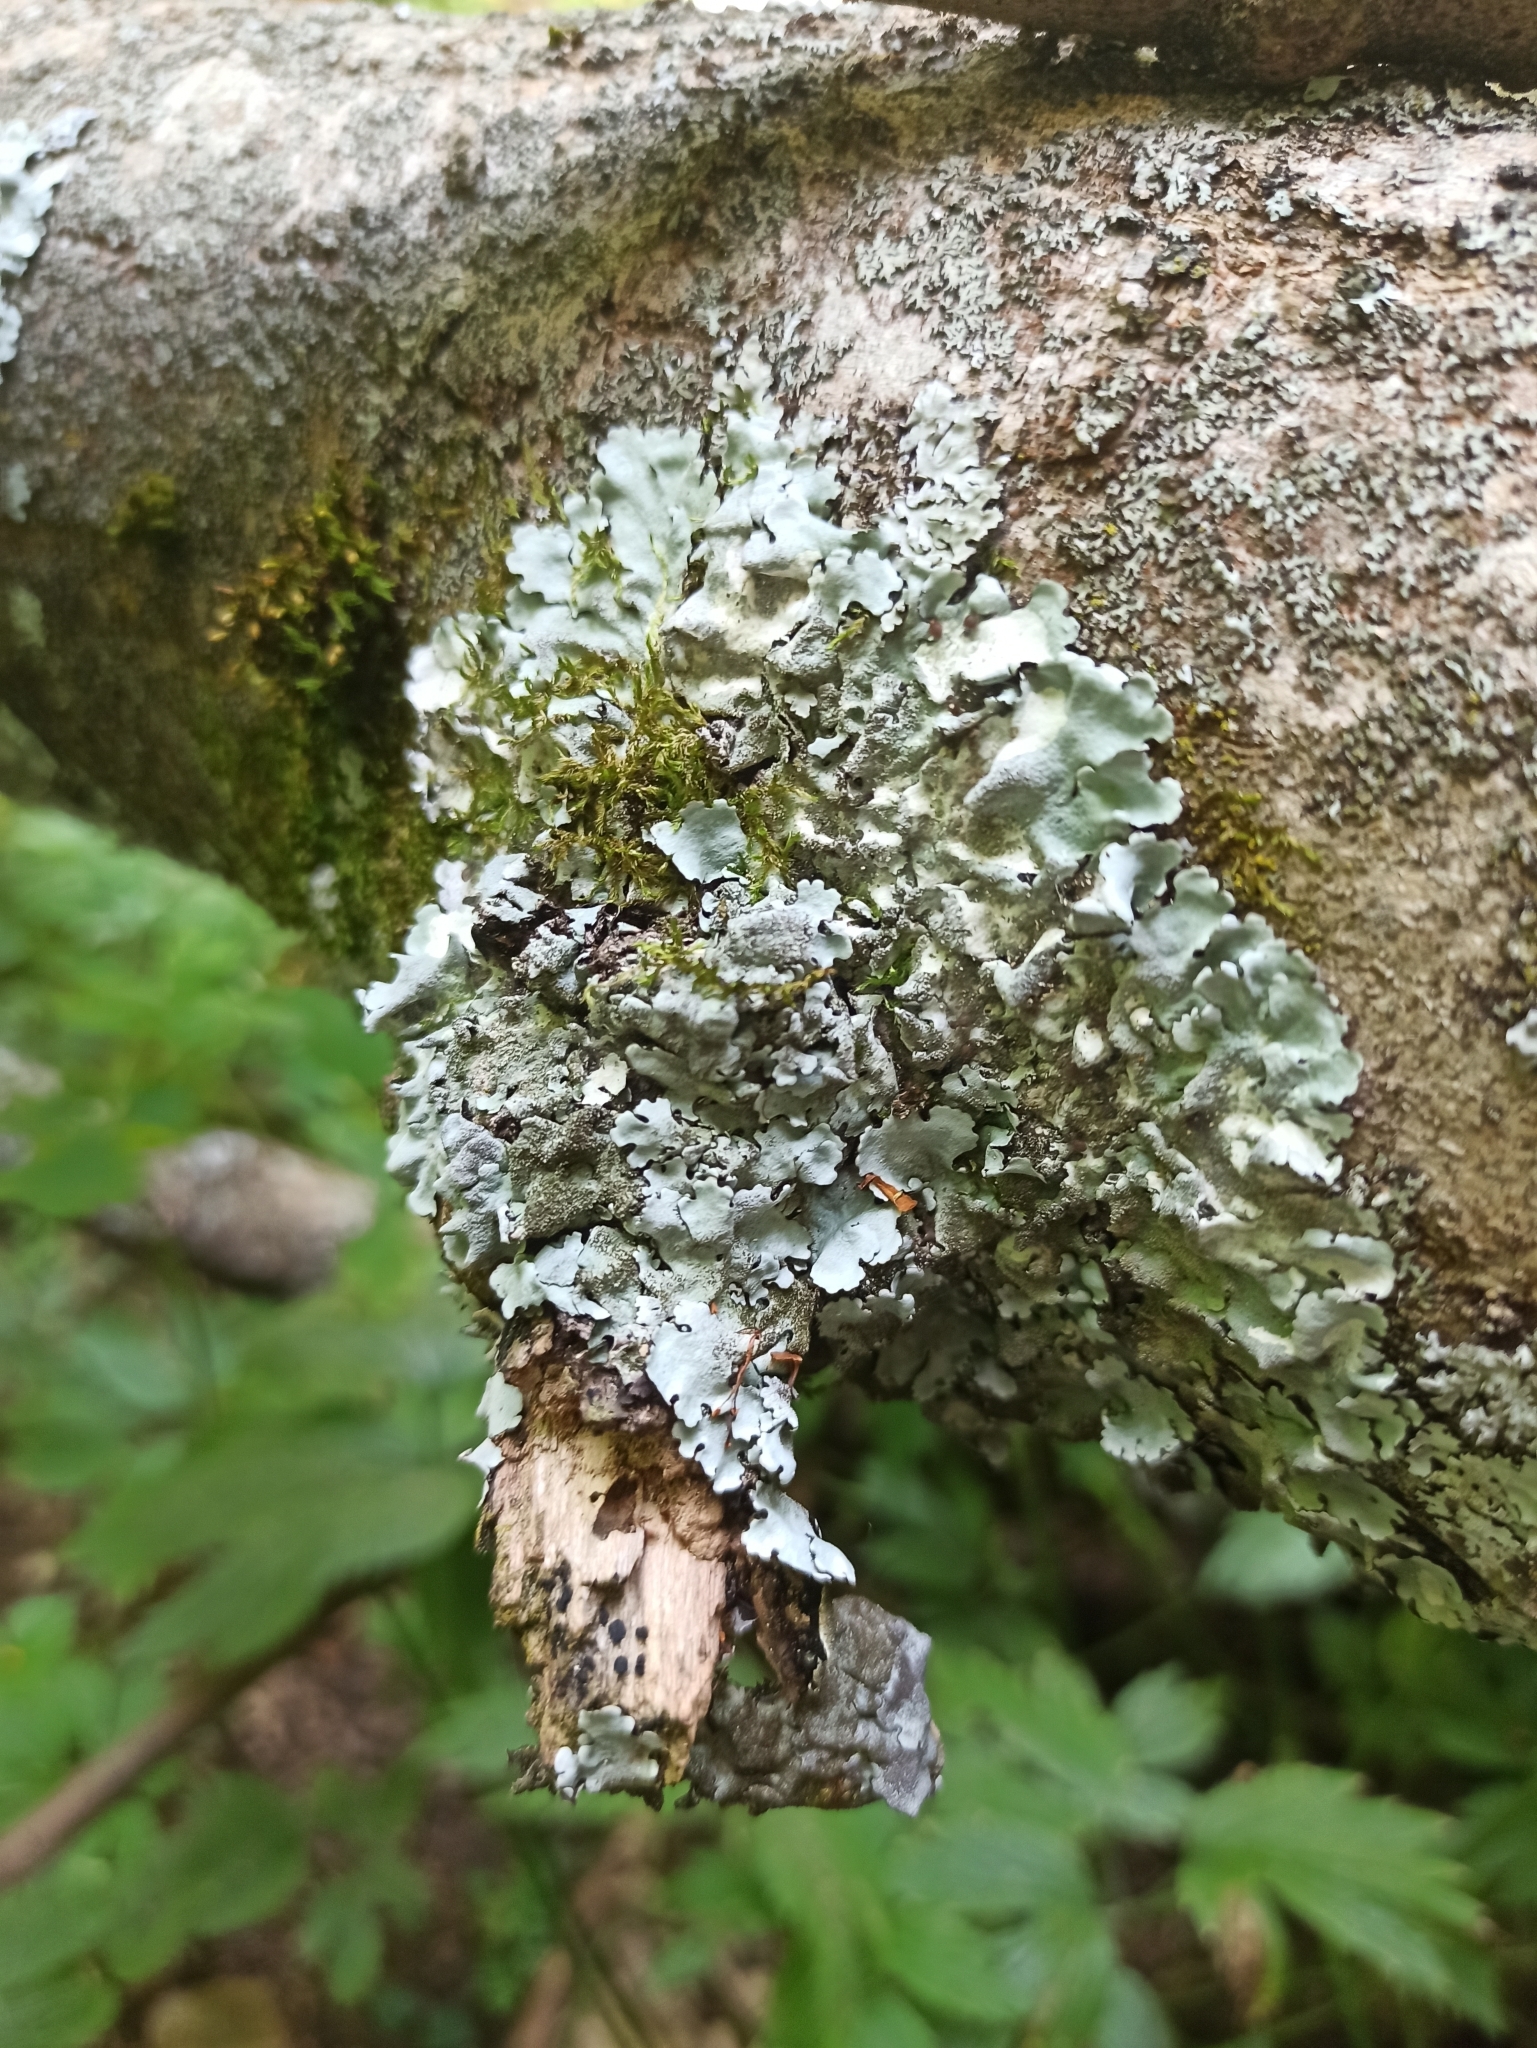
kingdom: Fungi
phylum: Ascomycota
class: Lecanoromycetes
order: Lecanorales
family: Parmeliaceae
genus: Parmelina
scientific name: Parmelina tiliacea
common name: Linden shield lichen
